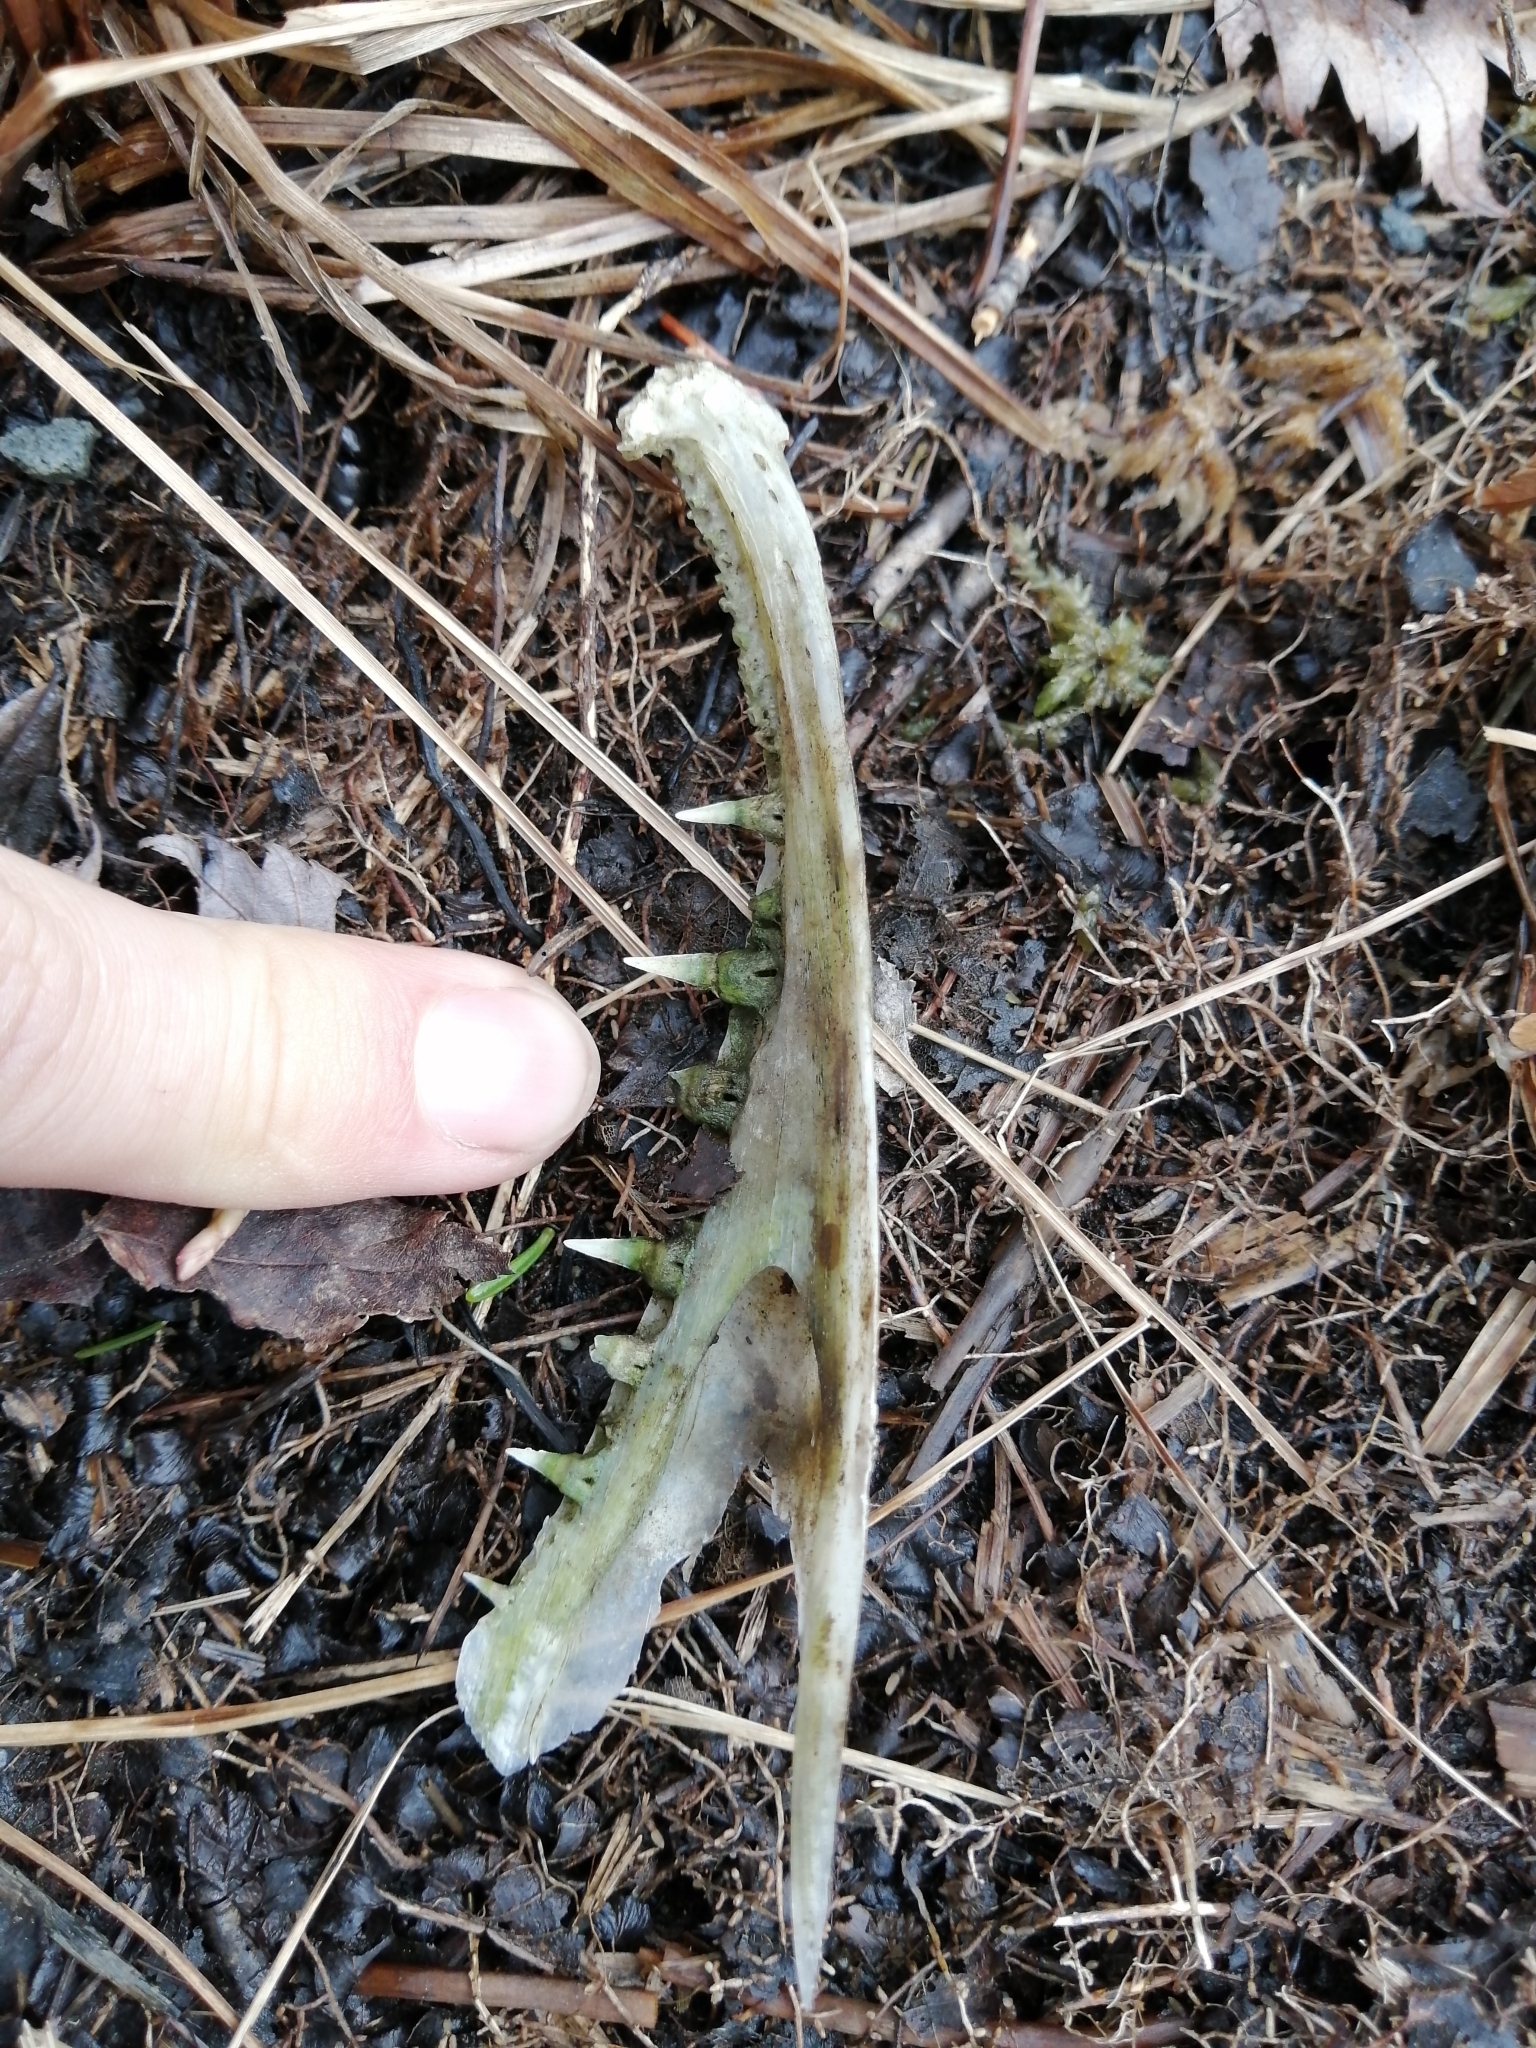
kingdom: Animalia
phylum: Chordata
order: Esociformes
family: Esocidae
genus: Esox
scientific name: Esox niger
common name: Chain pickerel
